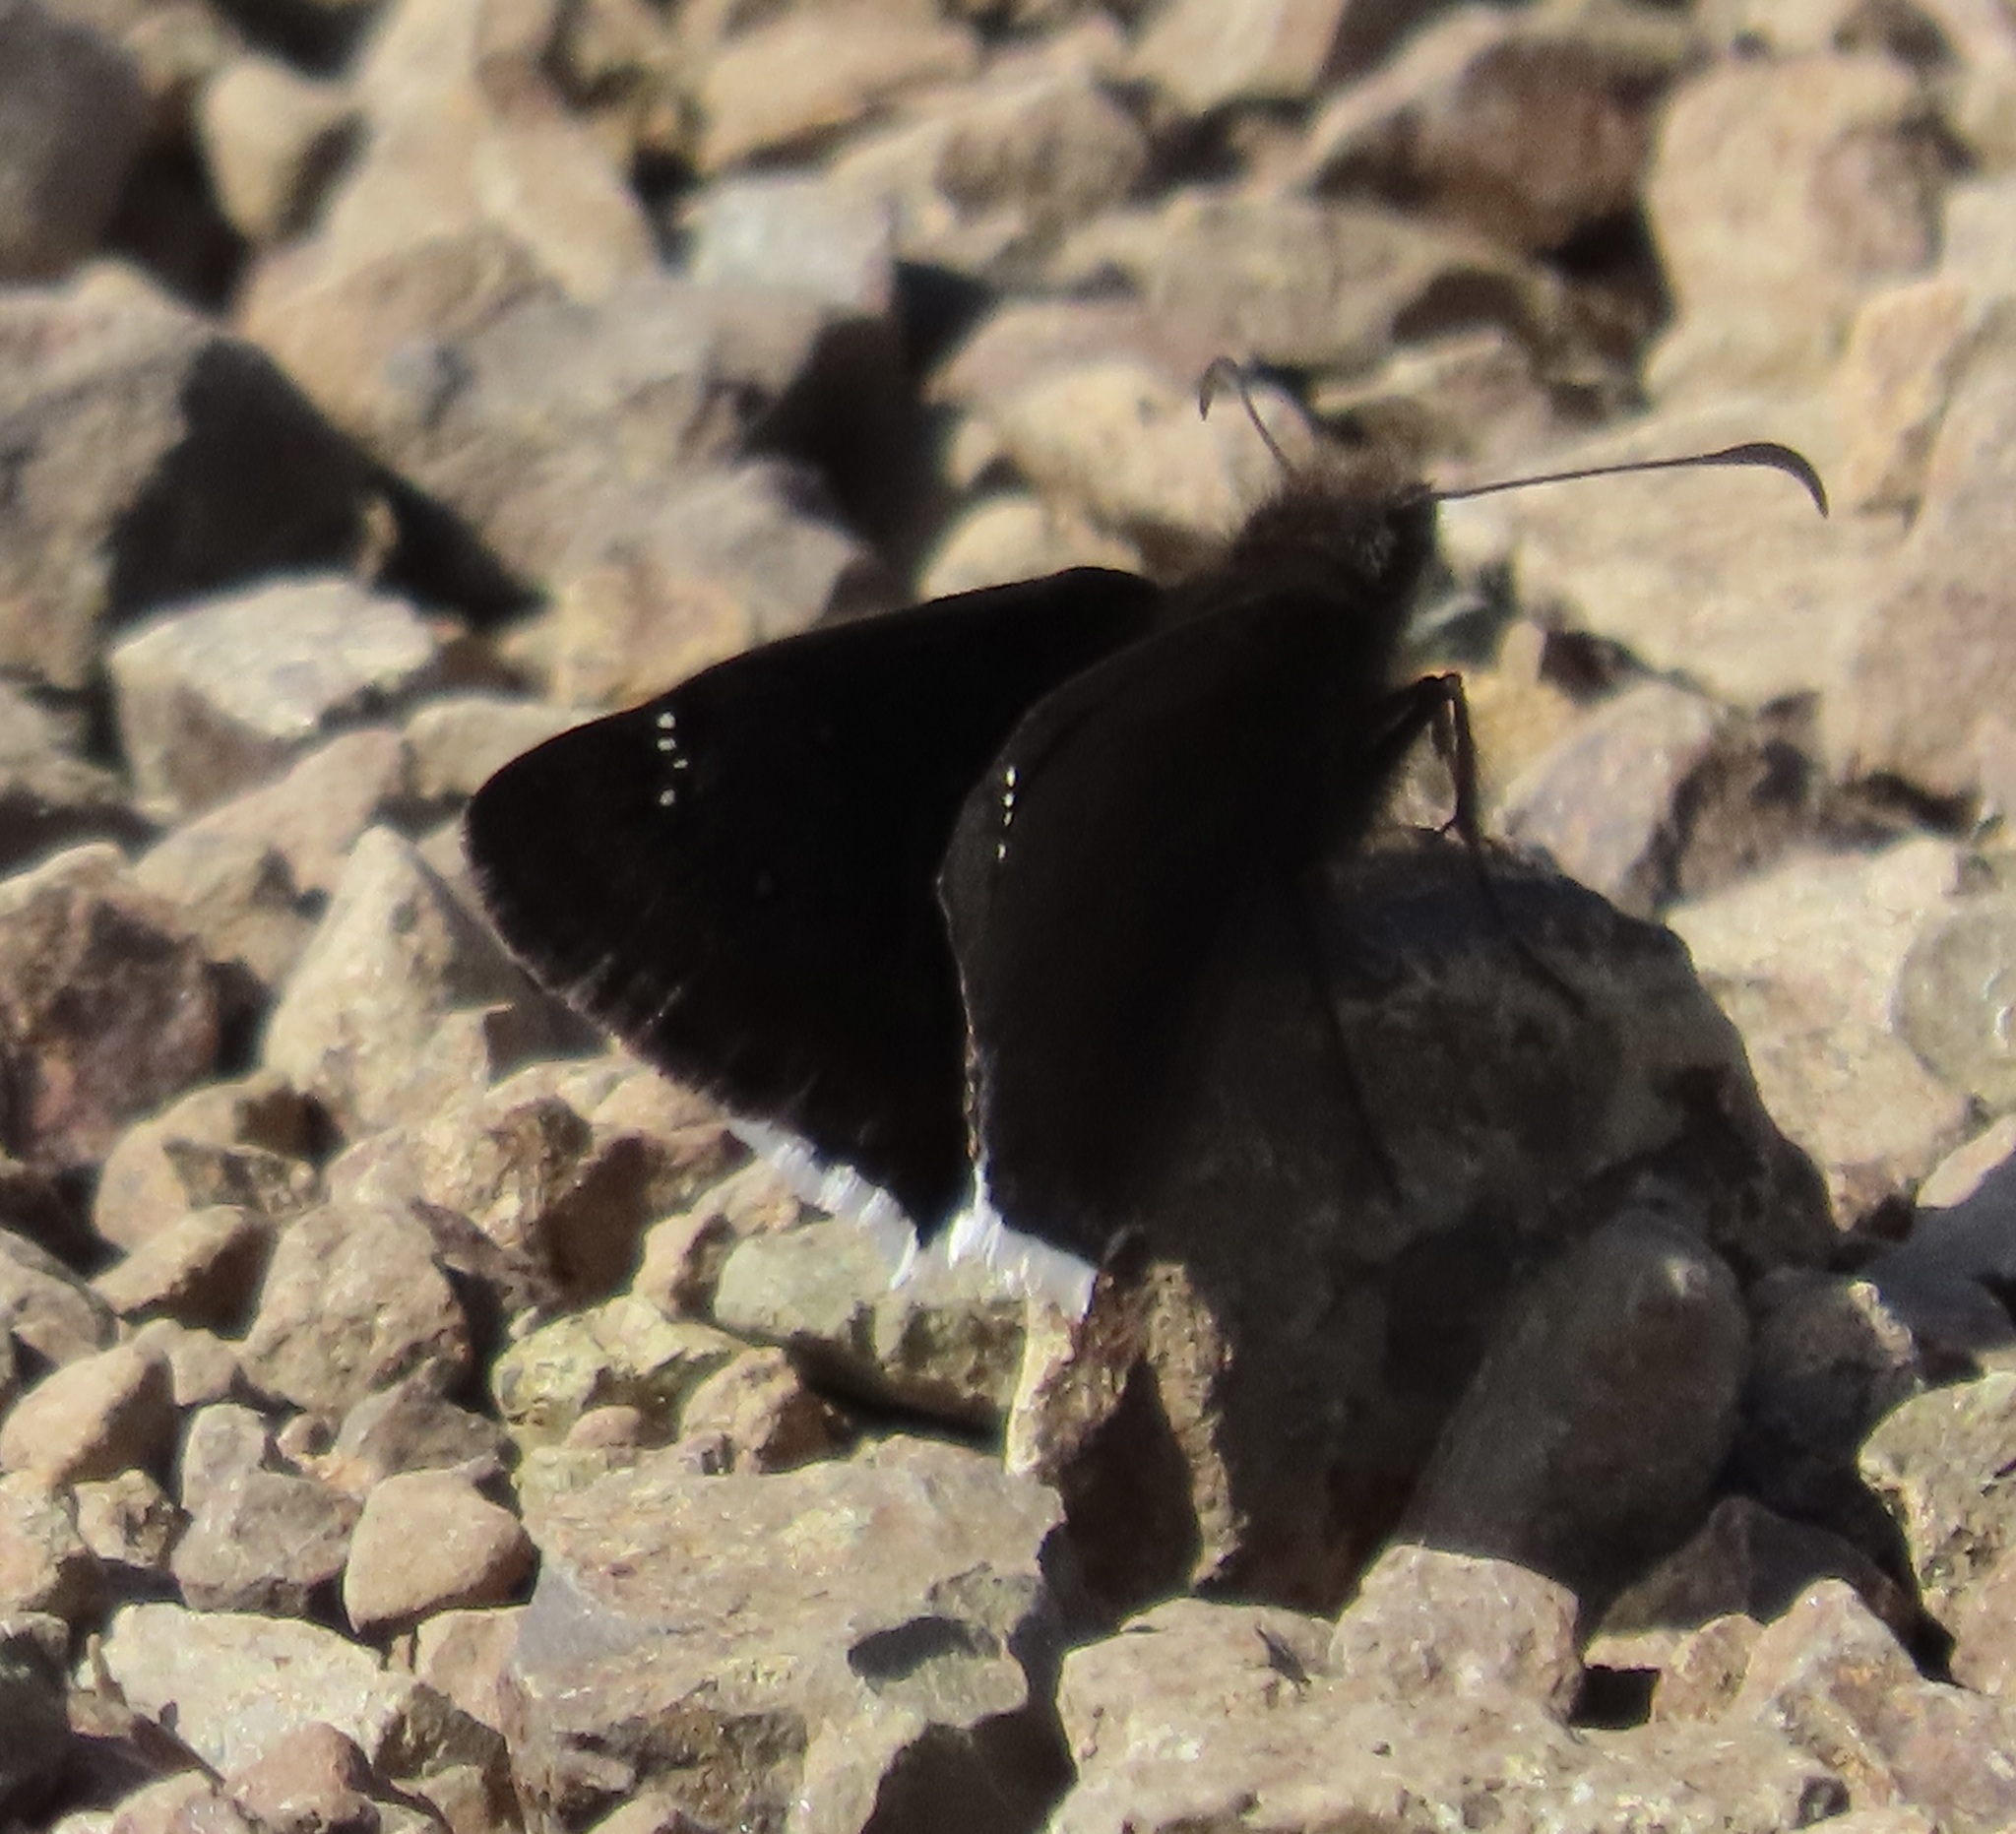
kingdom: Animalia
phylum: Arthropoda
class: Insecta
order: Lepidoptera
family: Hesperiidae
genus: Erynnis
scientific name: Erynnis tristis
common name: Mournful duskywing
